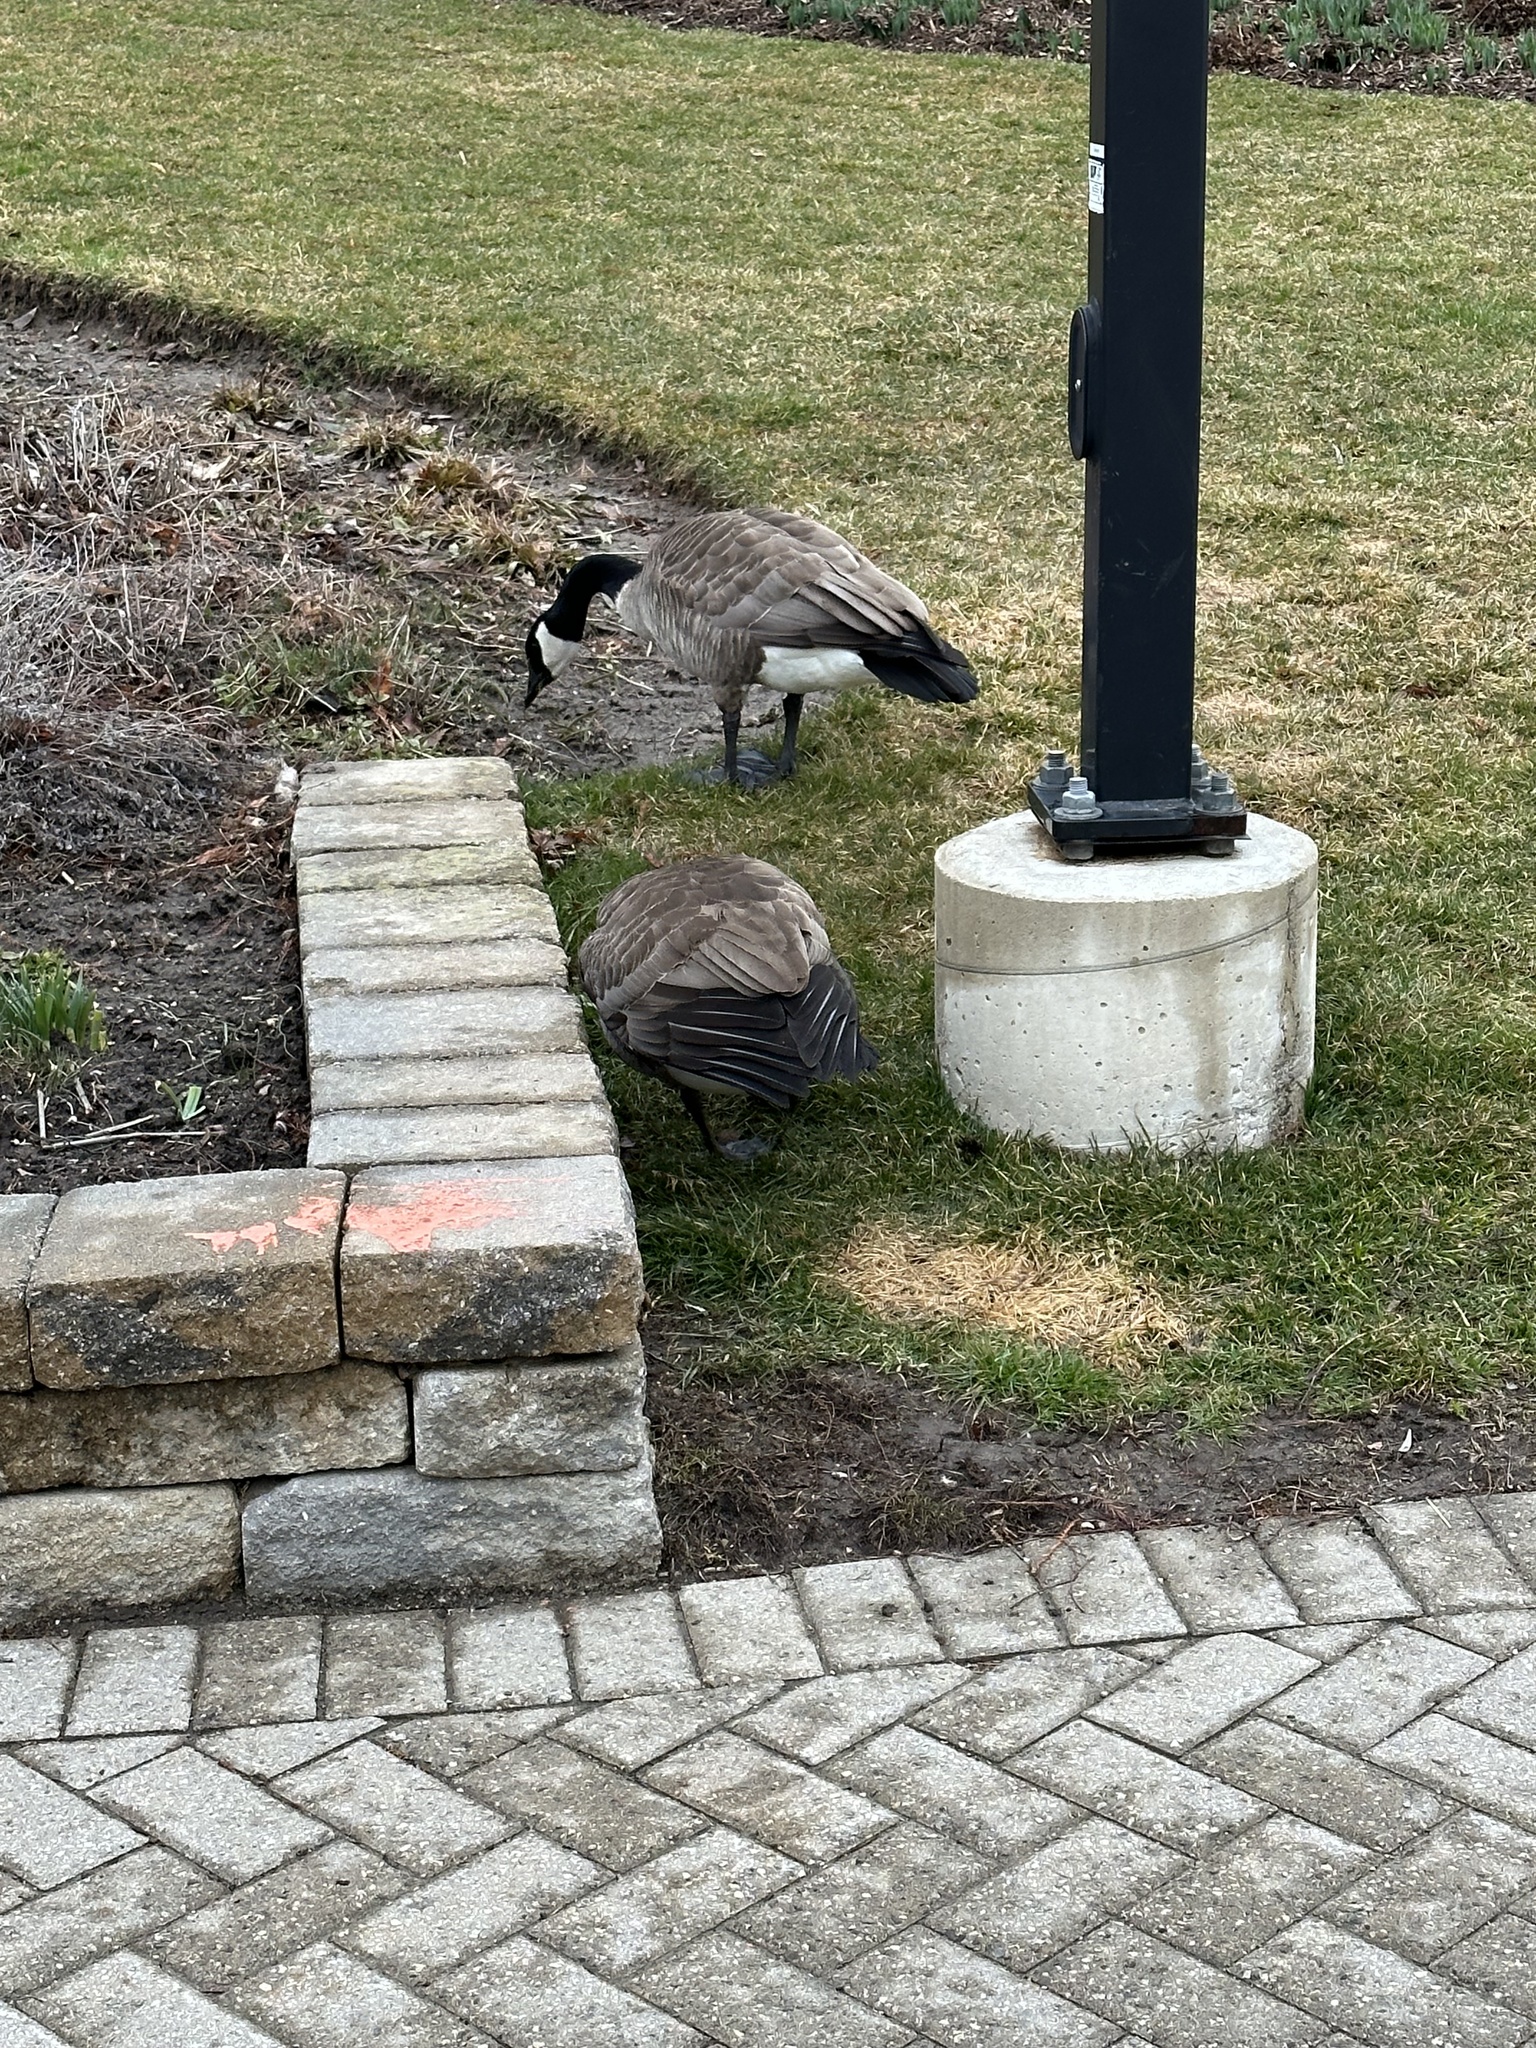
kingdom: Animalia
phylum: Chordata
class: Aves
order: Anseriformes
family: Anatidae
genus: Branta
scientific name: Branta canadensis
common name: Canada goose
